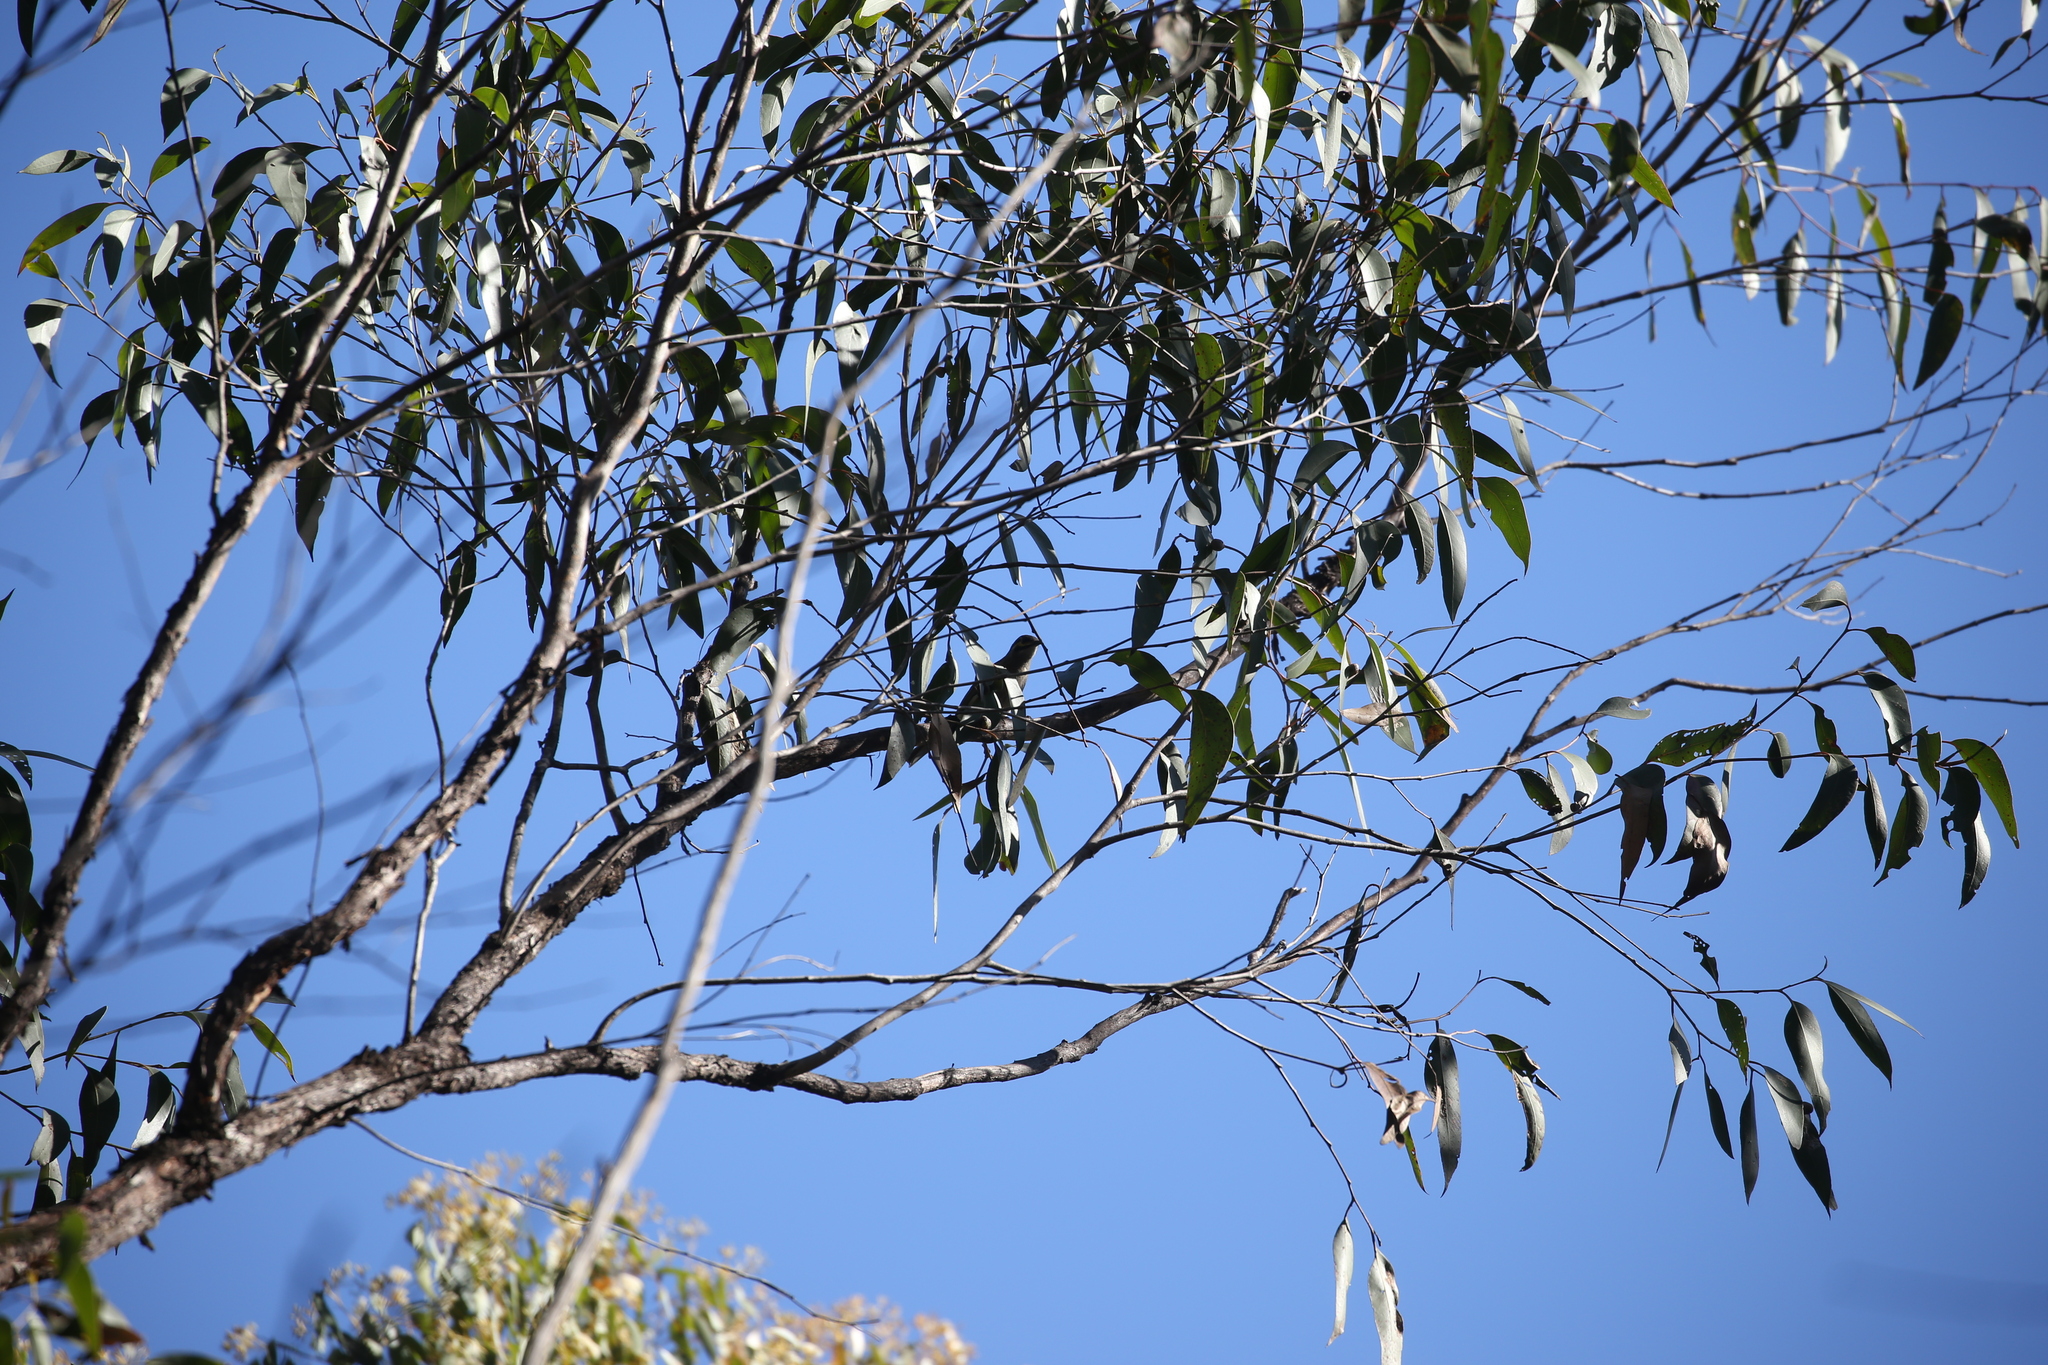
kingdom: Animalia
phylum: Chordata
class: Aves
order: Passeriformes
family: Meliphagidae
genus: Caligavis
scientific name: Caligavis chrysops
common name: Yellow-faced honeyeater
